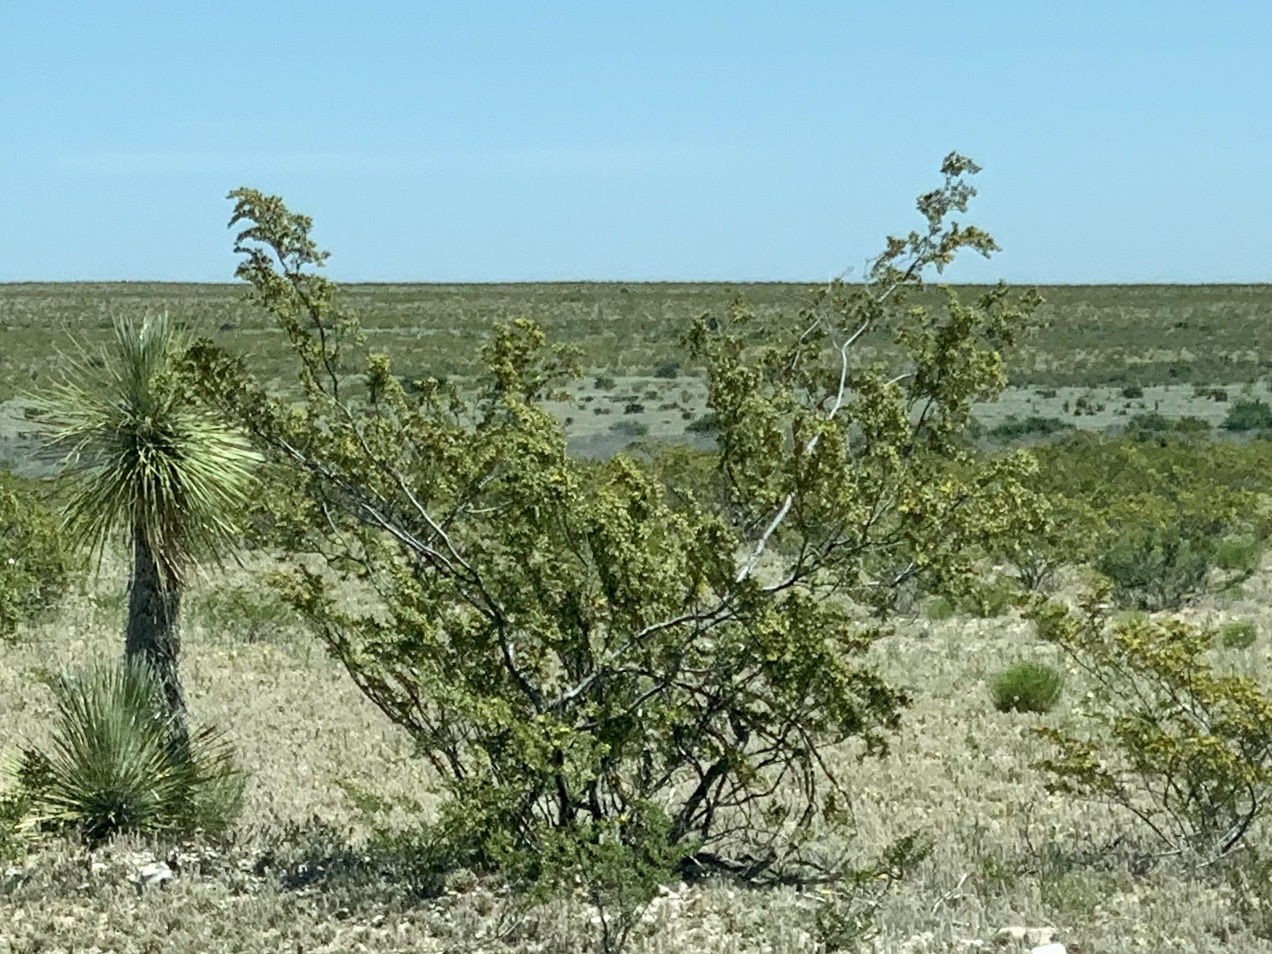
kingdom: Plantae
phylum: Tracheophyta
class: Magnoliopsida
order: Zygophyllales
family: Zygophyllaceae
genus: Larrea
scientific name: Larrea tridentata
